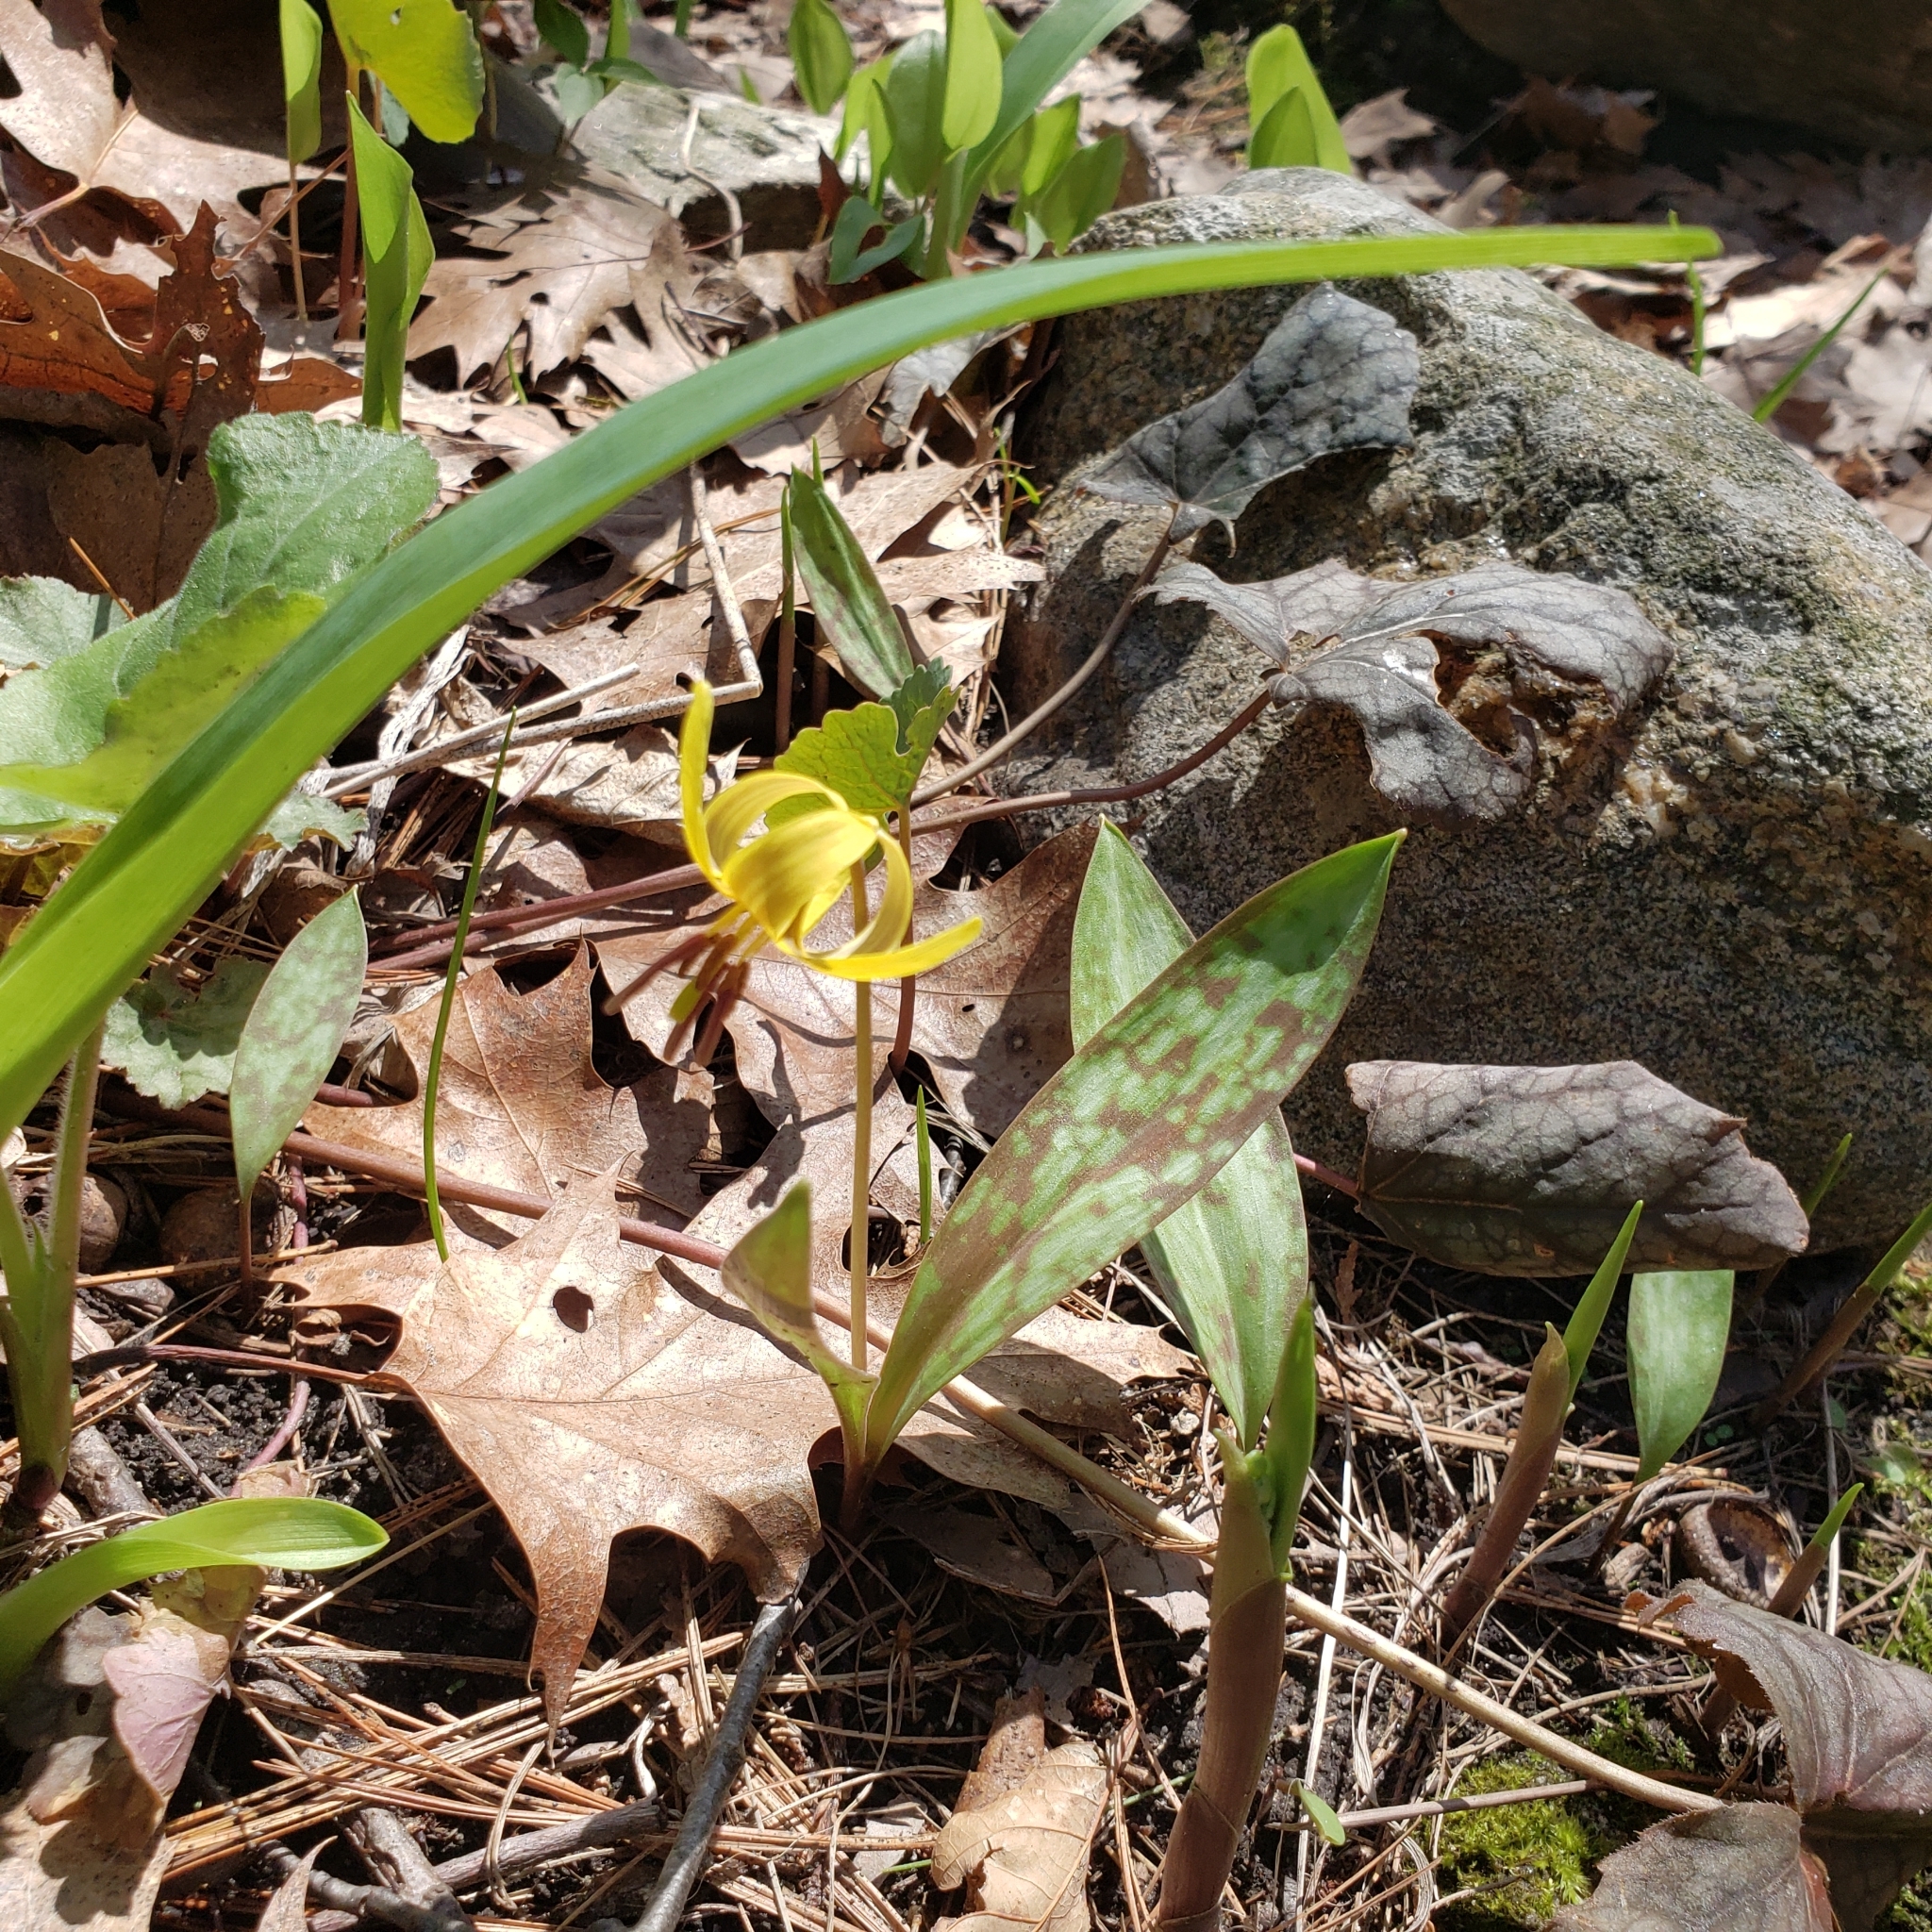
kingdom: Plantae
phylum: Tracheophyta
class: Liliopsida
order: Liliales
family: Liliaceae
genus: Erythronium
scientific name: Erythronium americanum
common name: Yellow adder's-tongue
